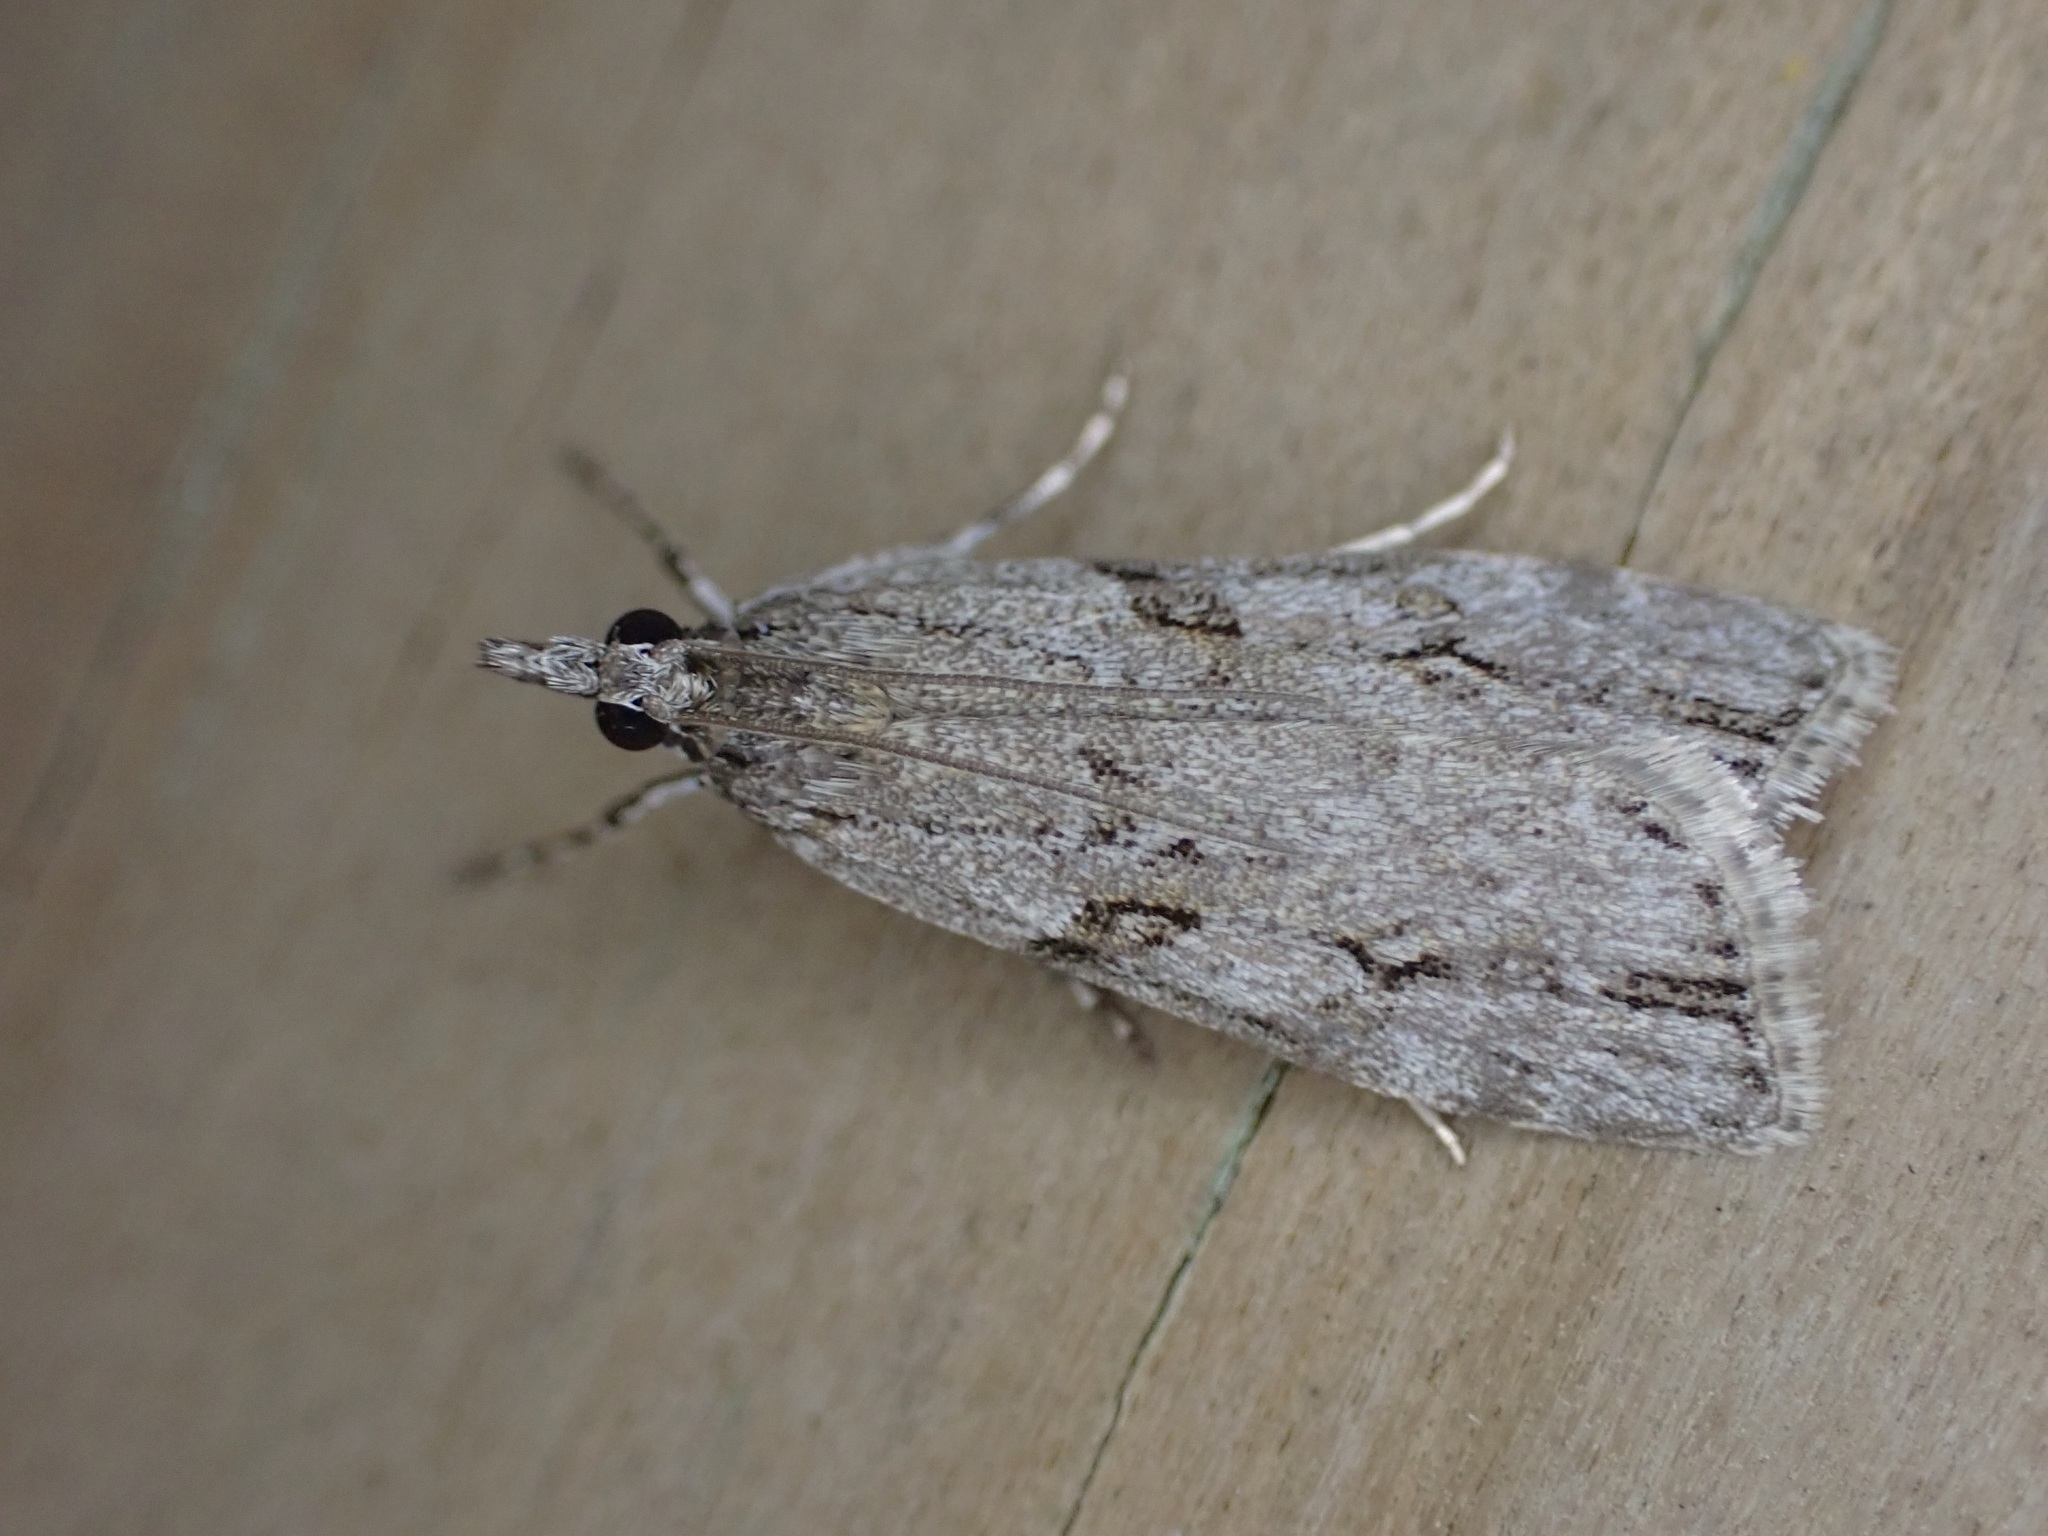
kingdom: Animalia
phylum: Arthropoda
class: Insecta
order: Lepidoptera
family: Crambidae
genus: Eudonia
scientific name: Eudonia cymatias
